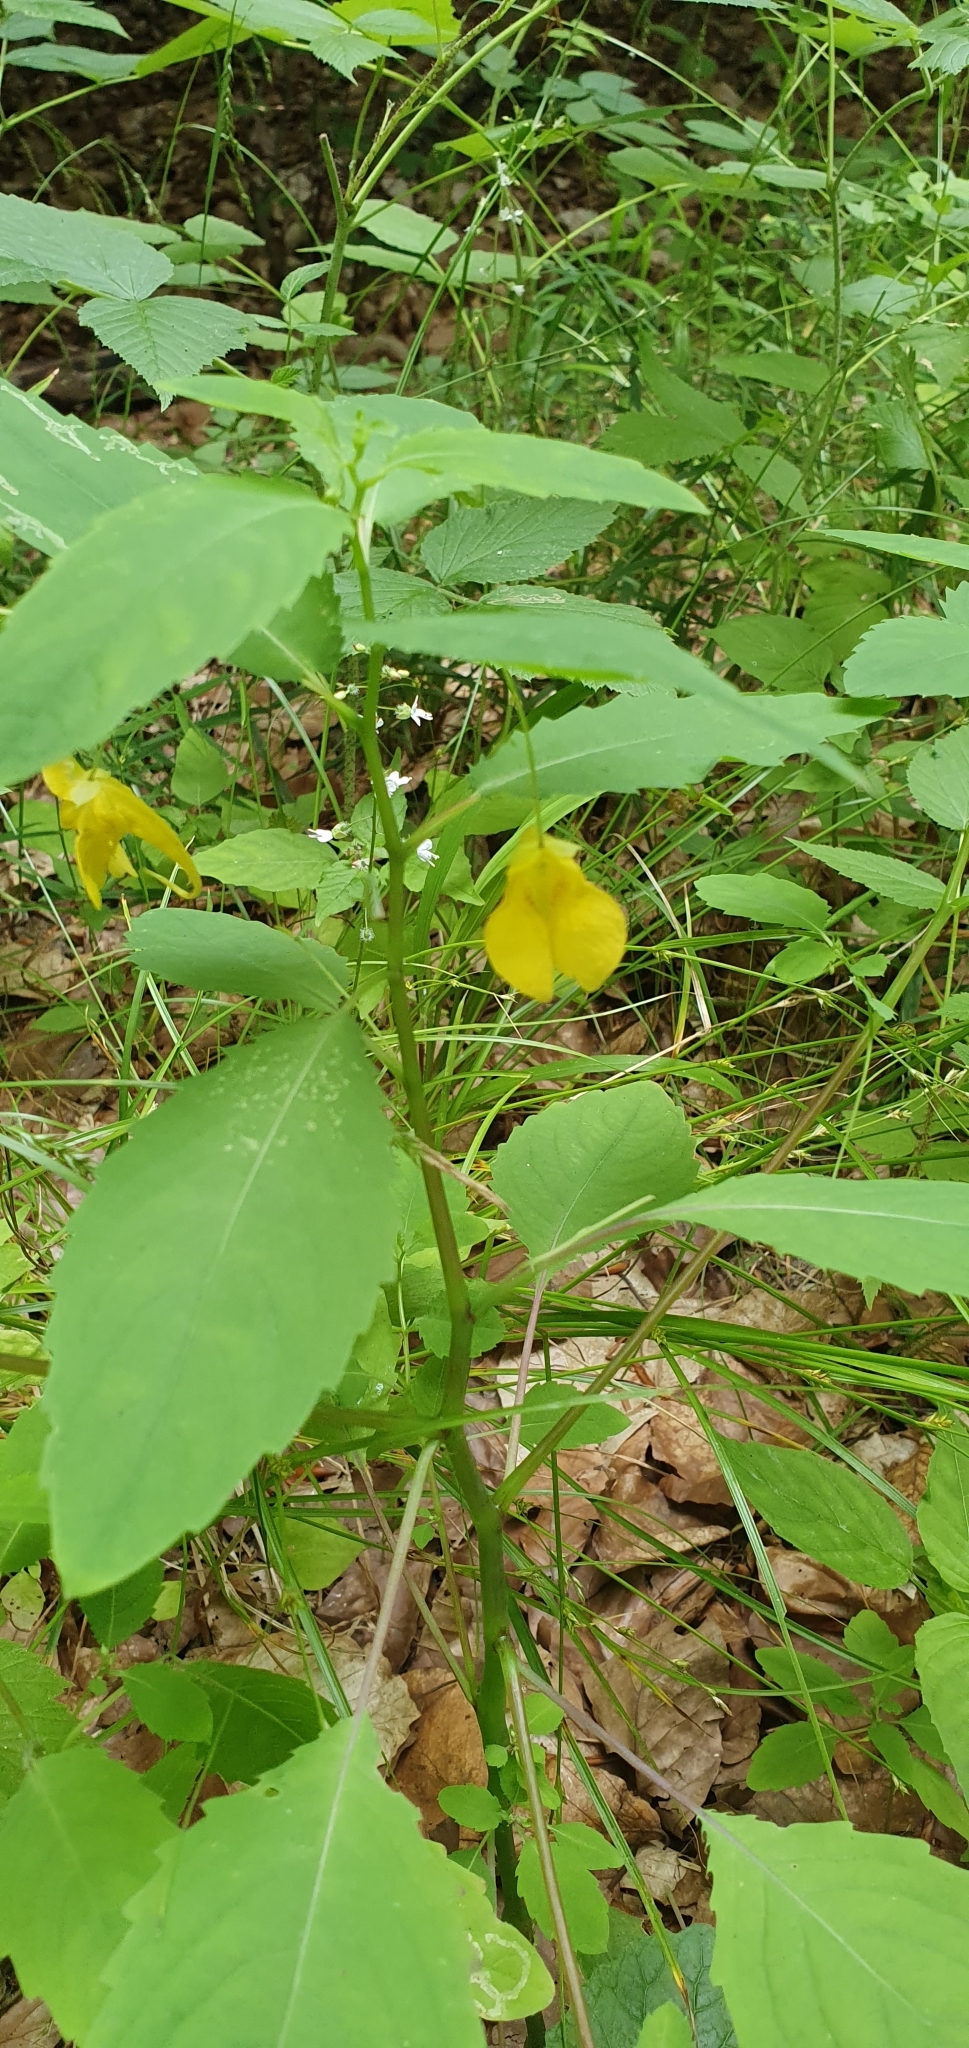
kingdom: Plantae
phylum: Tracheophyta
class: Magnoliopsida
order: Ericales
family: Balsaminaceae
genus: Impatiens
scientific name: Impatiens noli-tangere
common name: Touch-me-not balsam
